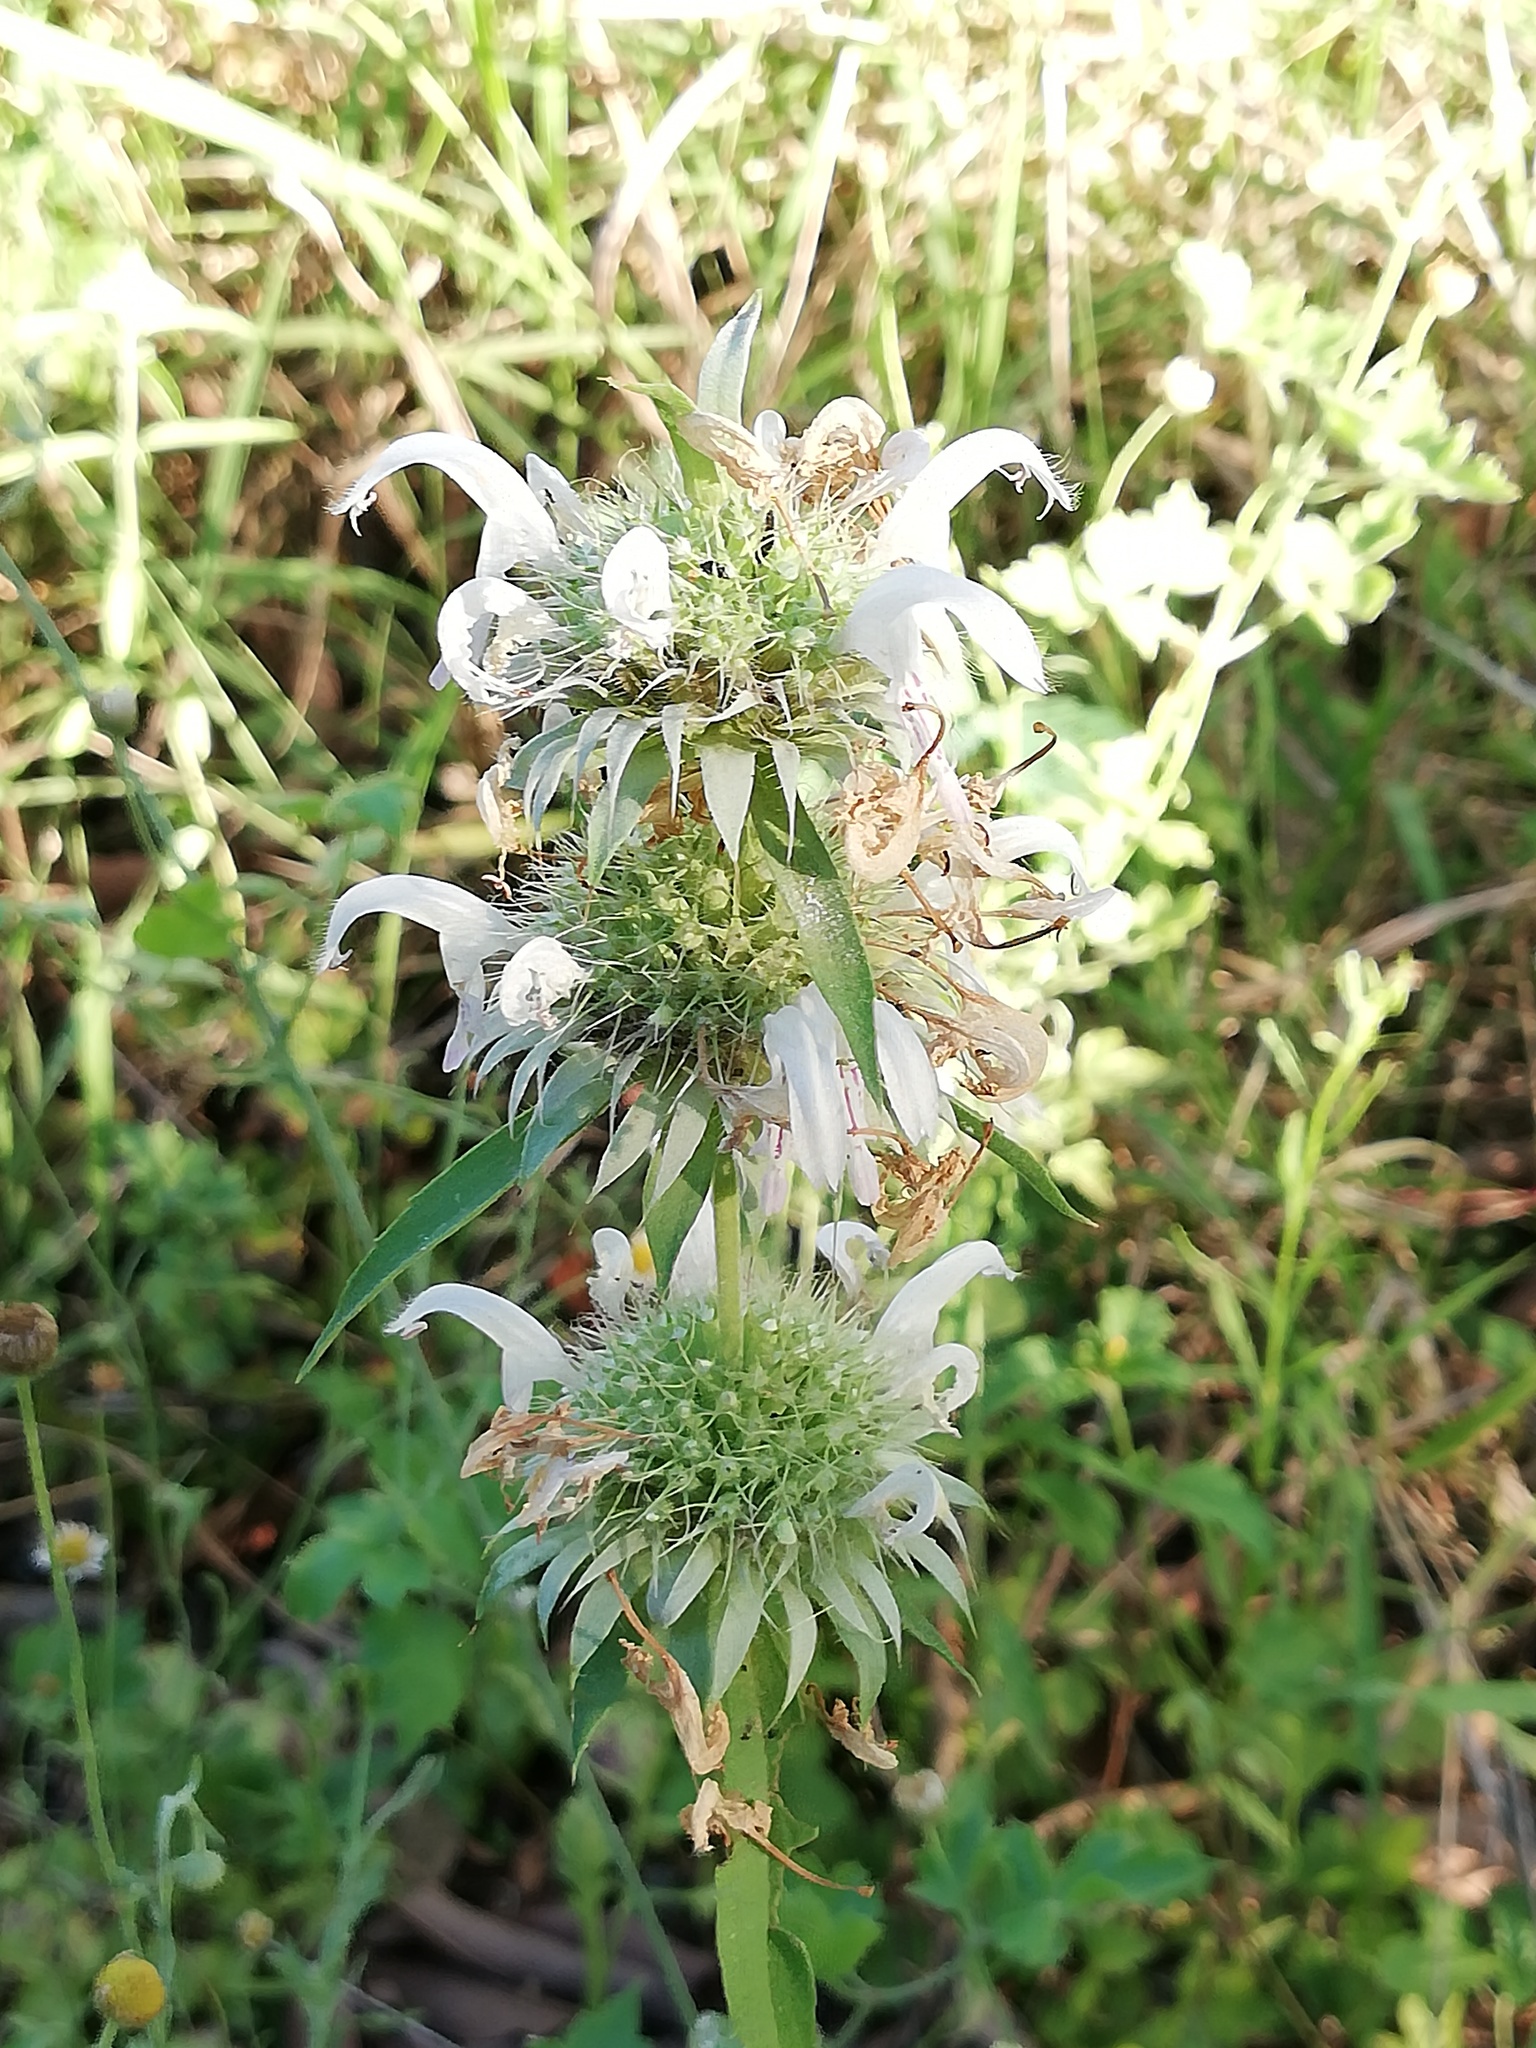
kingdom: Plantae
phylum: Tracheophyta
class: Magnoliopsida
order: Lamiales
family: Lamiaceae
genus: Monarda
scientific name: Monarda citriodora
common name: Lemon beebalm
